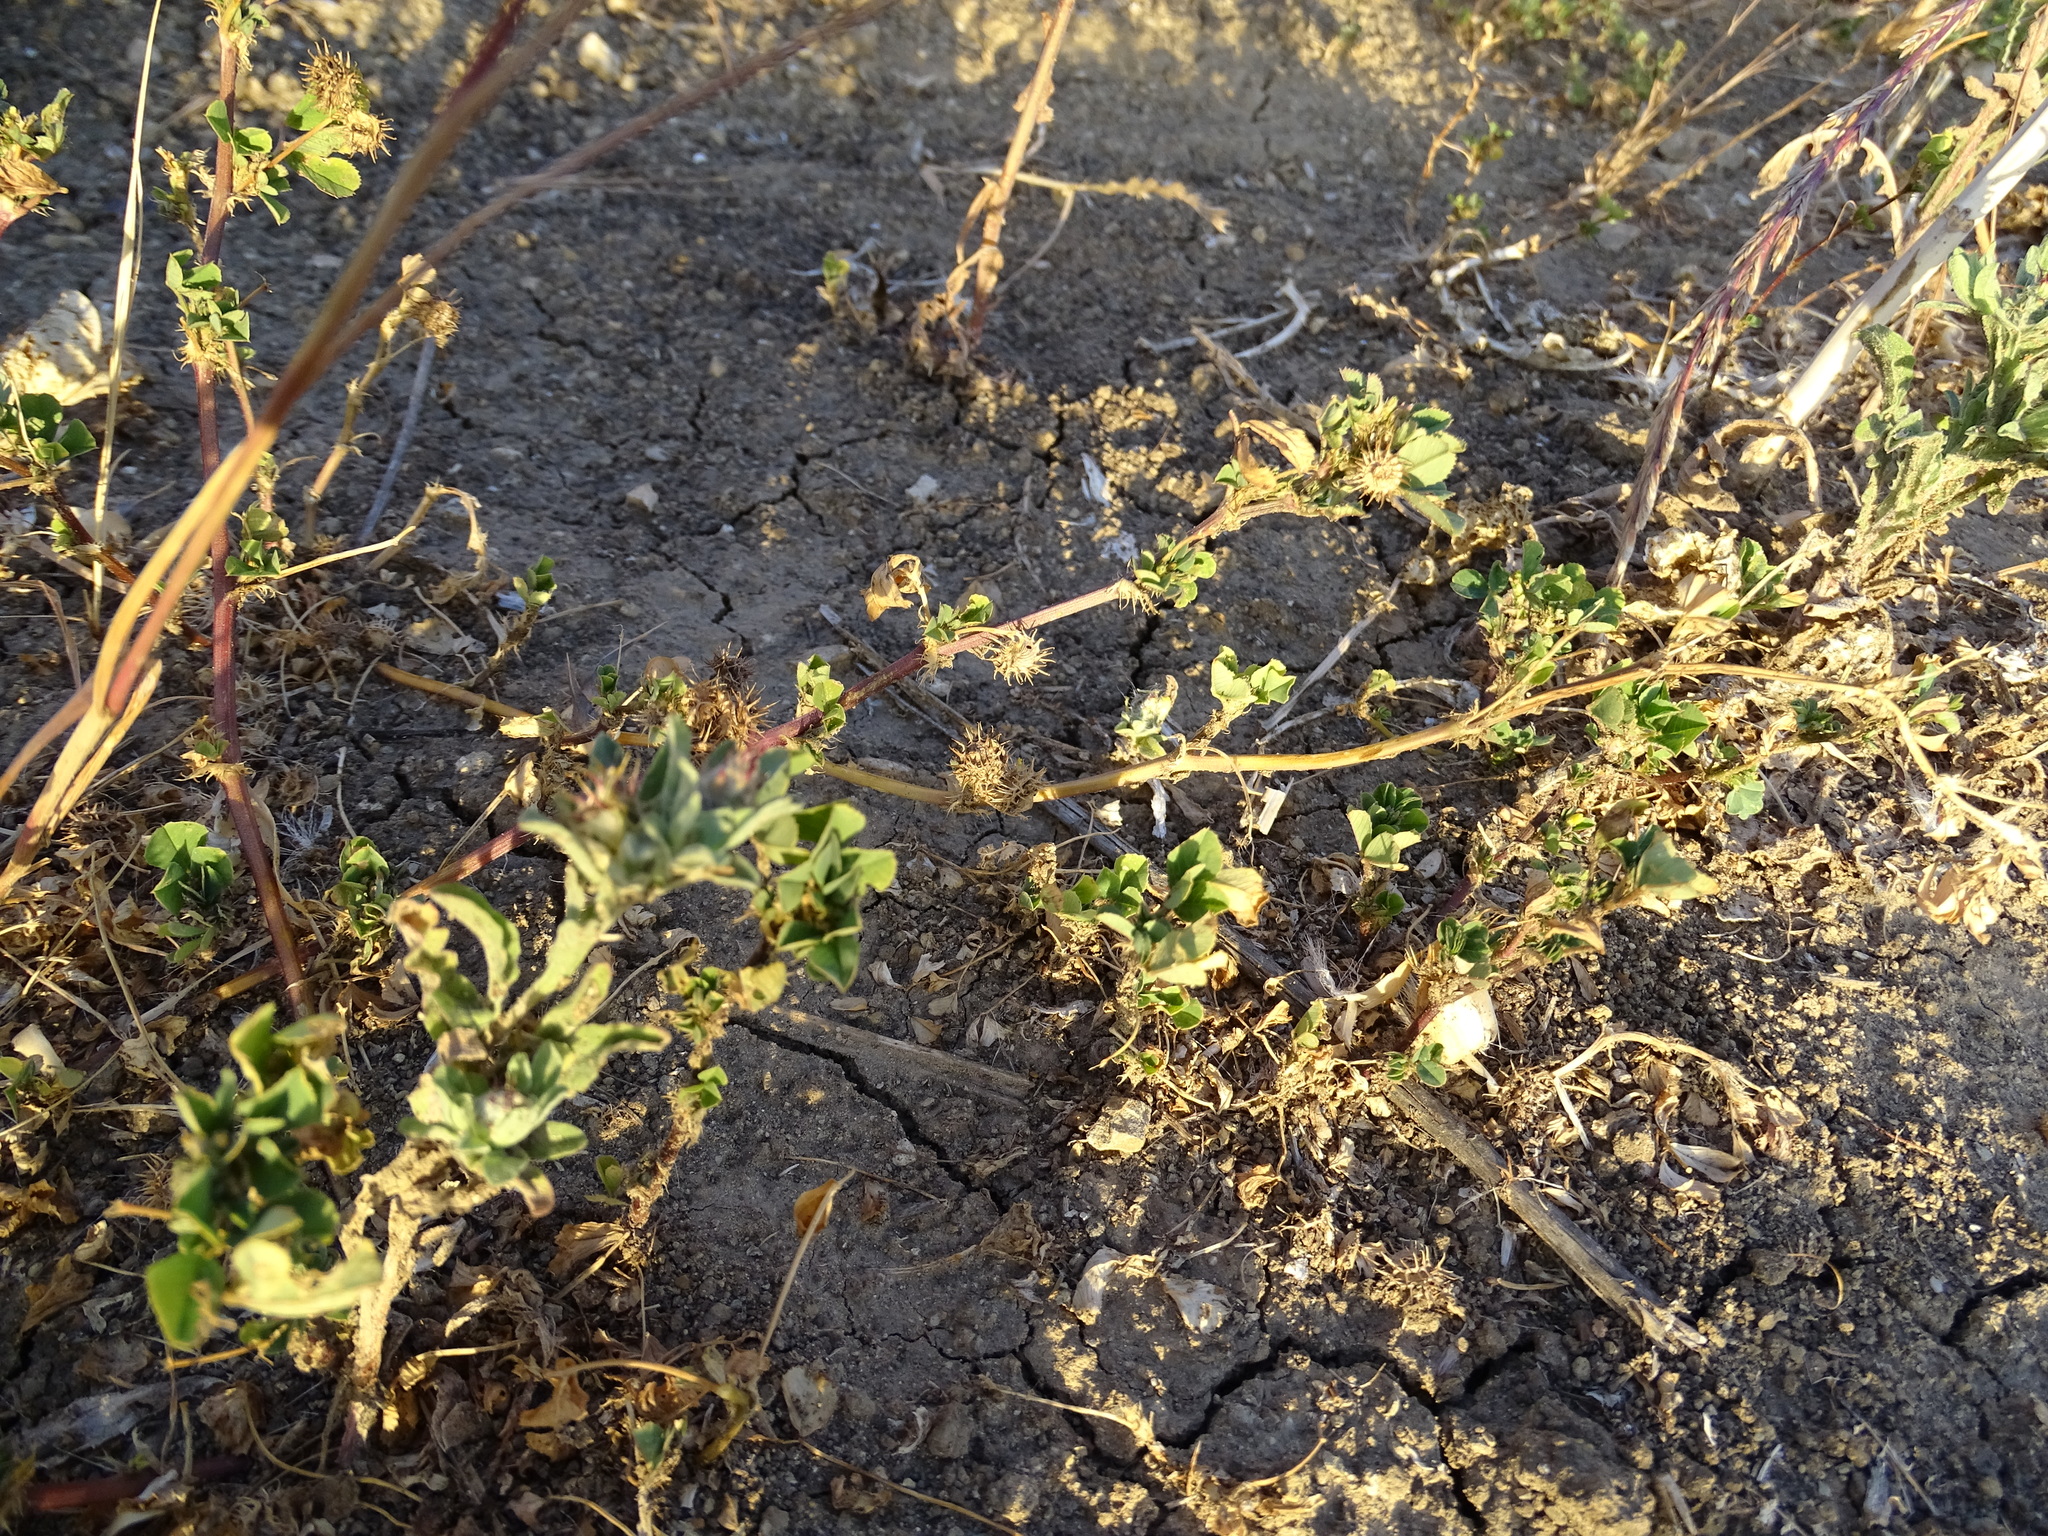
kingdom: Plantae
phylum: Tracheophyta
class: Magnoliopsida
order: Fabales
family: Fabaceae
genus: Medicago
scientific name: Medicago polymorpha
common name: Burclover
